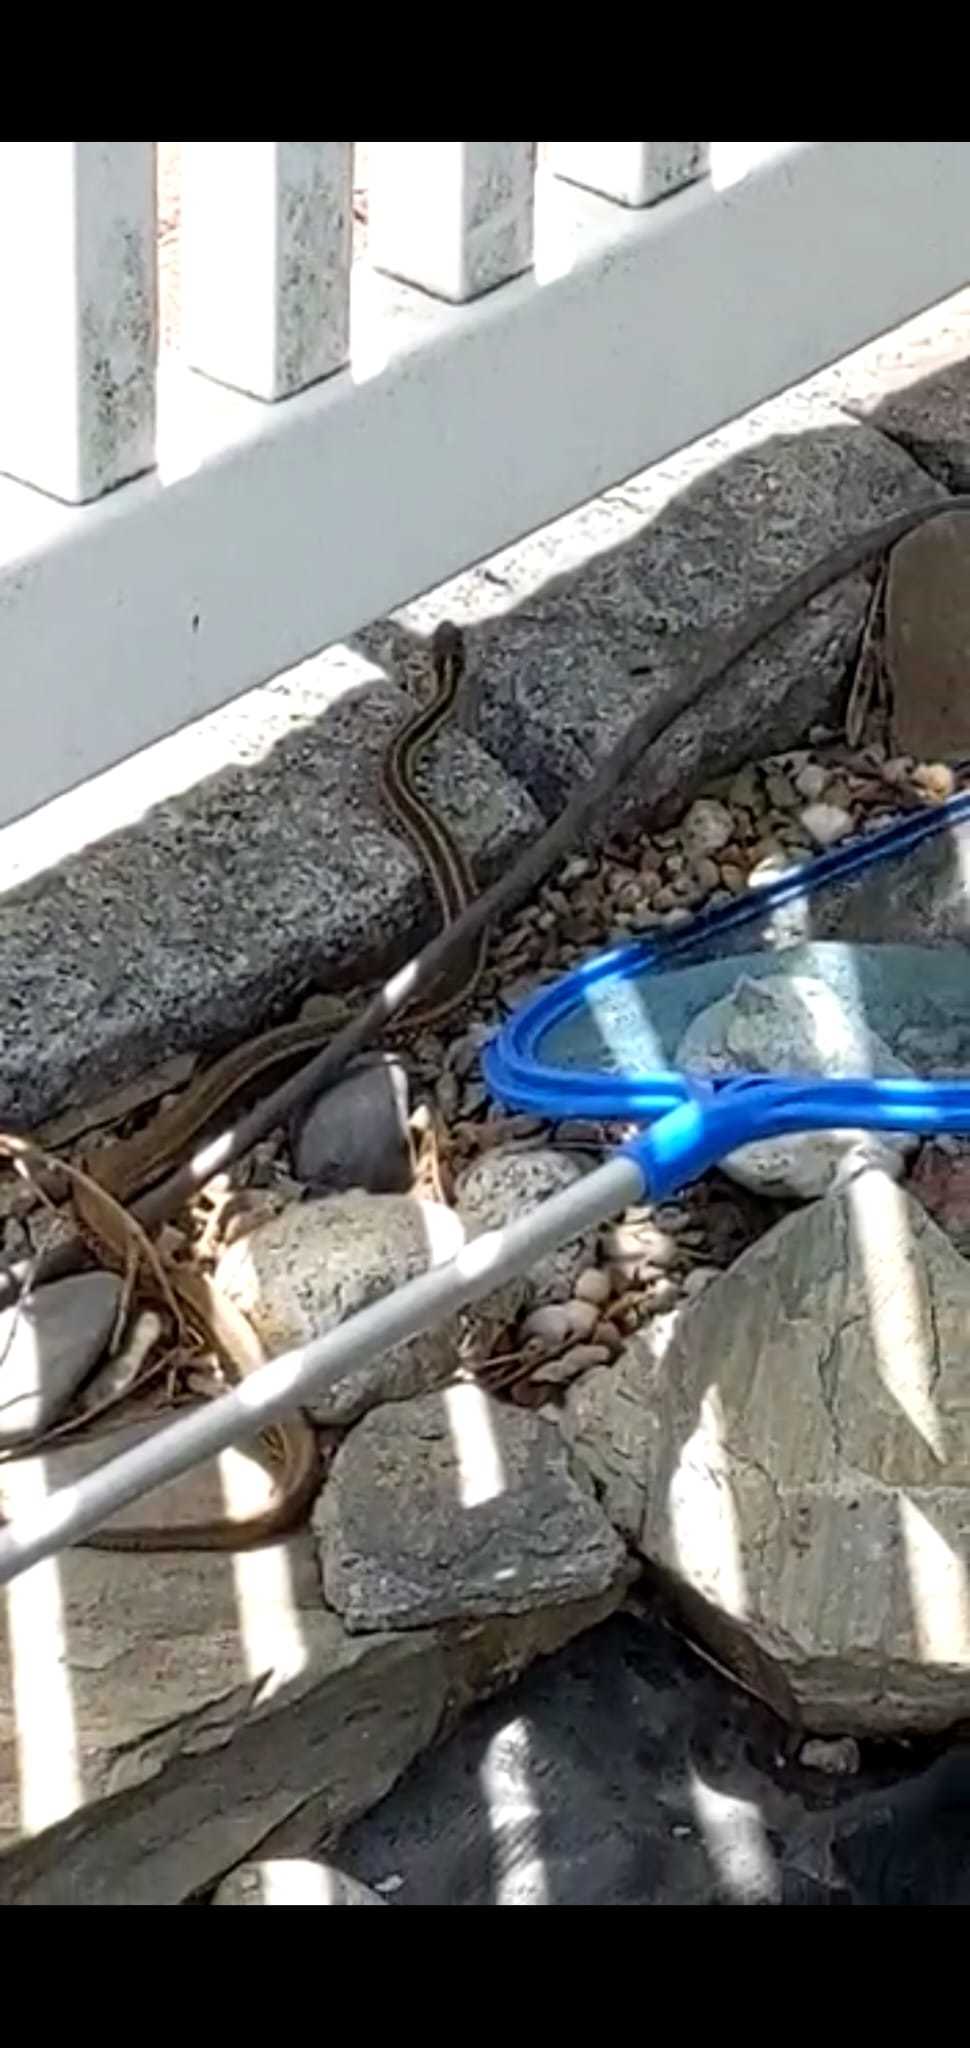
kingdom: Animalia
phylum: Chordata
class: Squamata
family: Colubridae
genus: Thamnophis
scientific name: Thamnophis sirtalis
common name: Common garter snake
